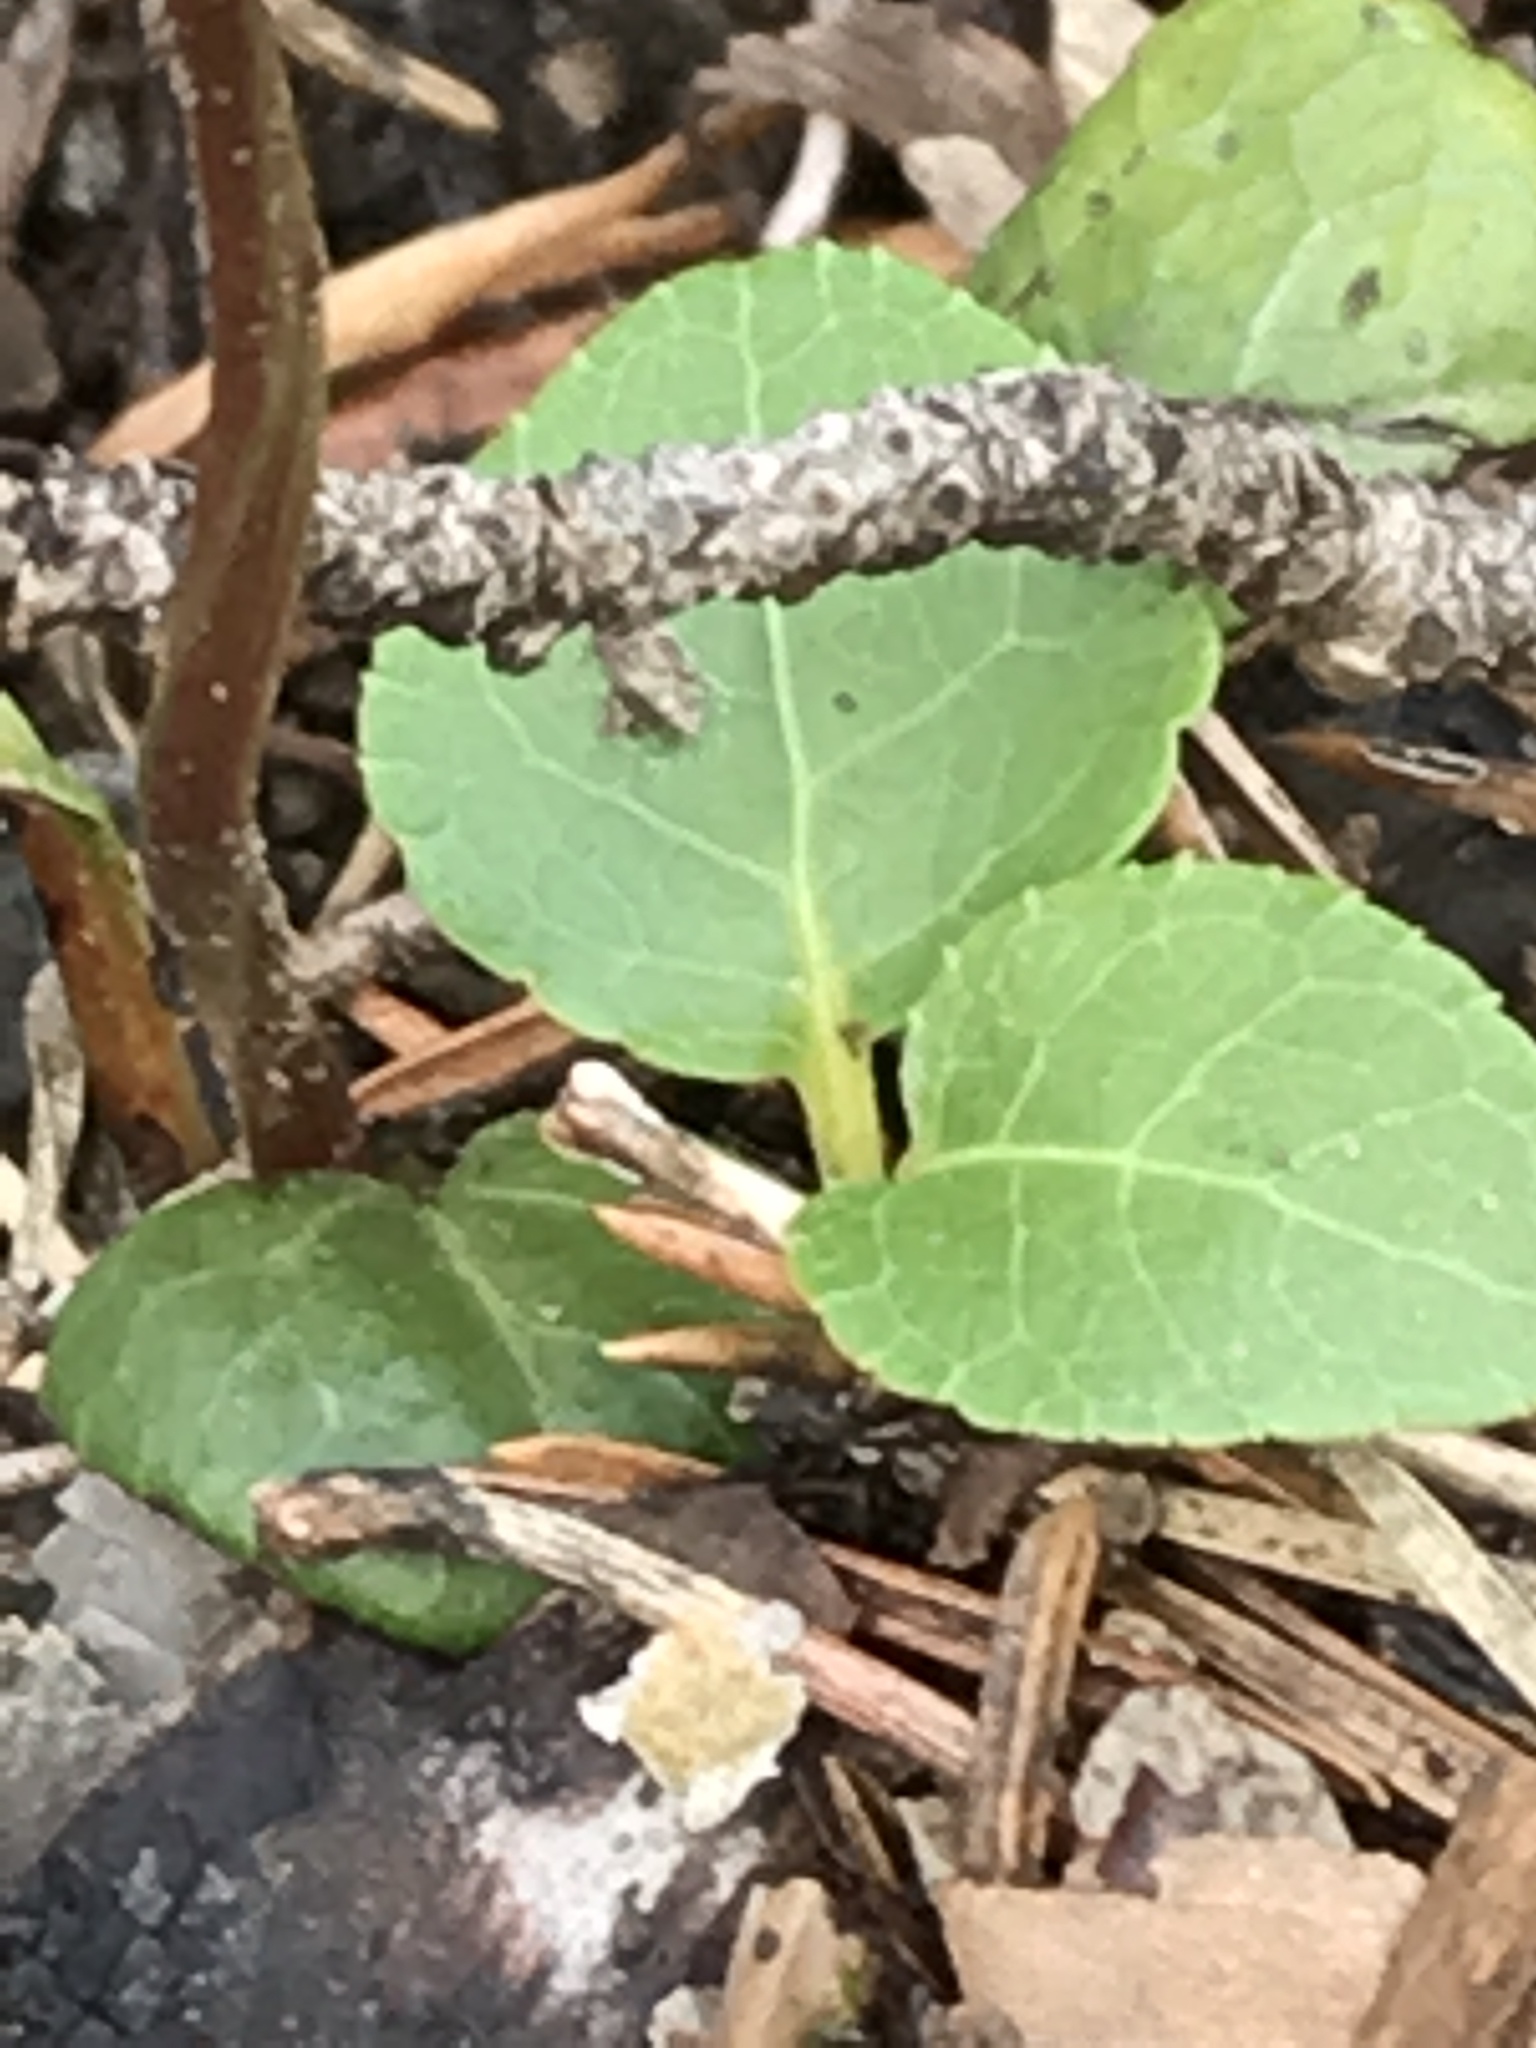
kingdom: Plantae
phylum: Tracheophyta
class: Magnoliopsida
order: Ericales
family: Ericaceae
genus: Pyrola
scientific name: Pyrola chlorantha
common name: Green wintergreen
